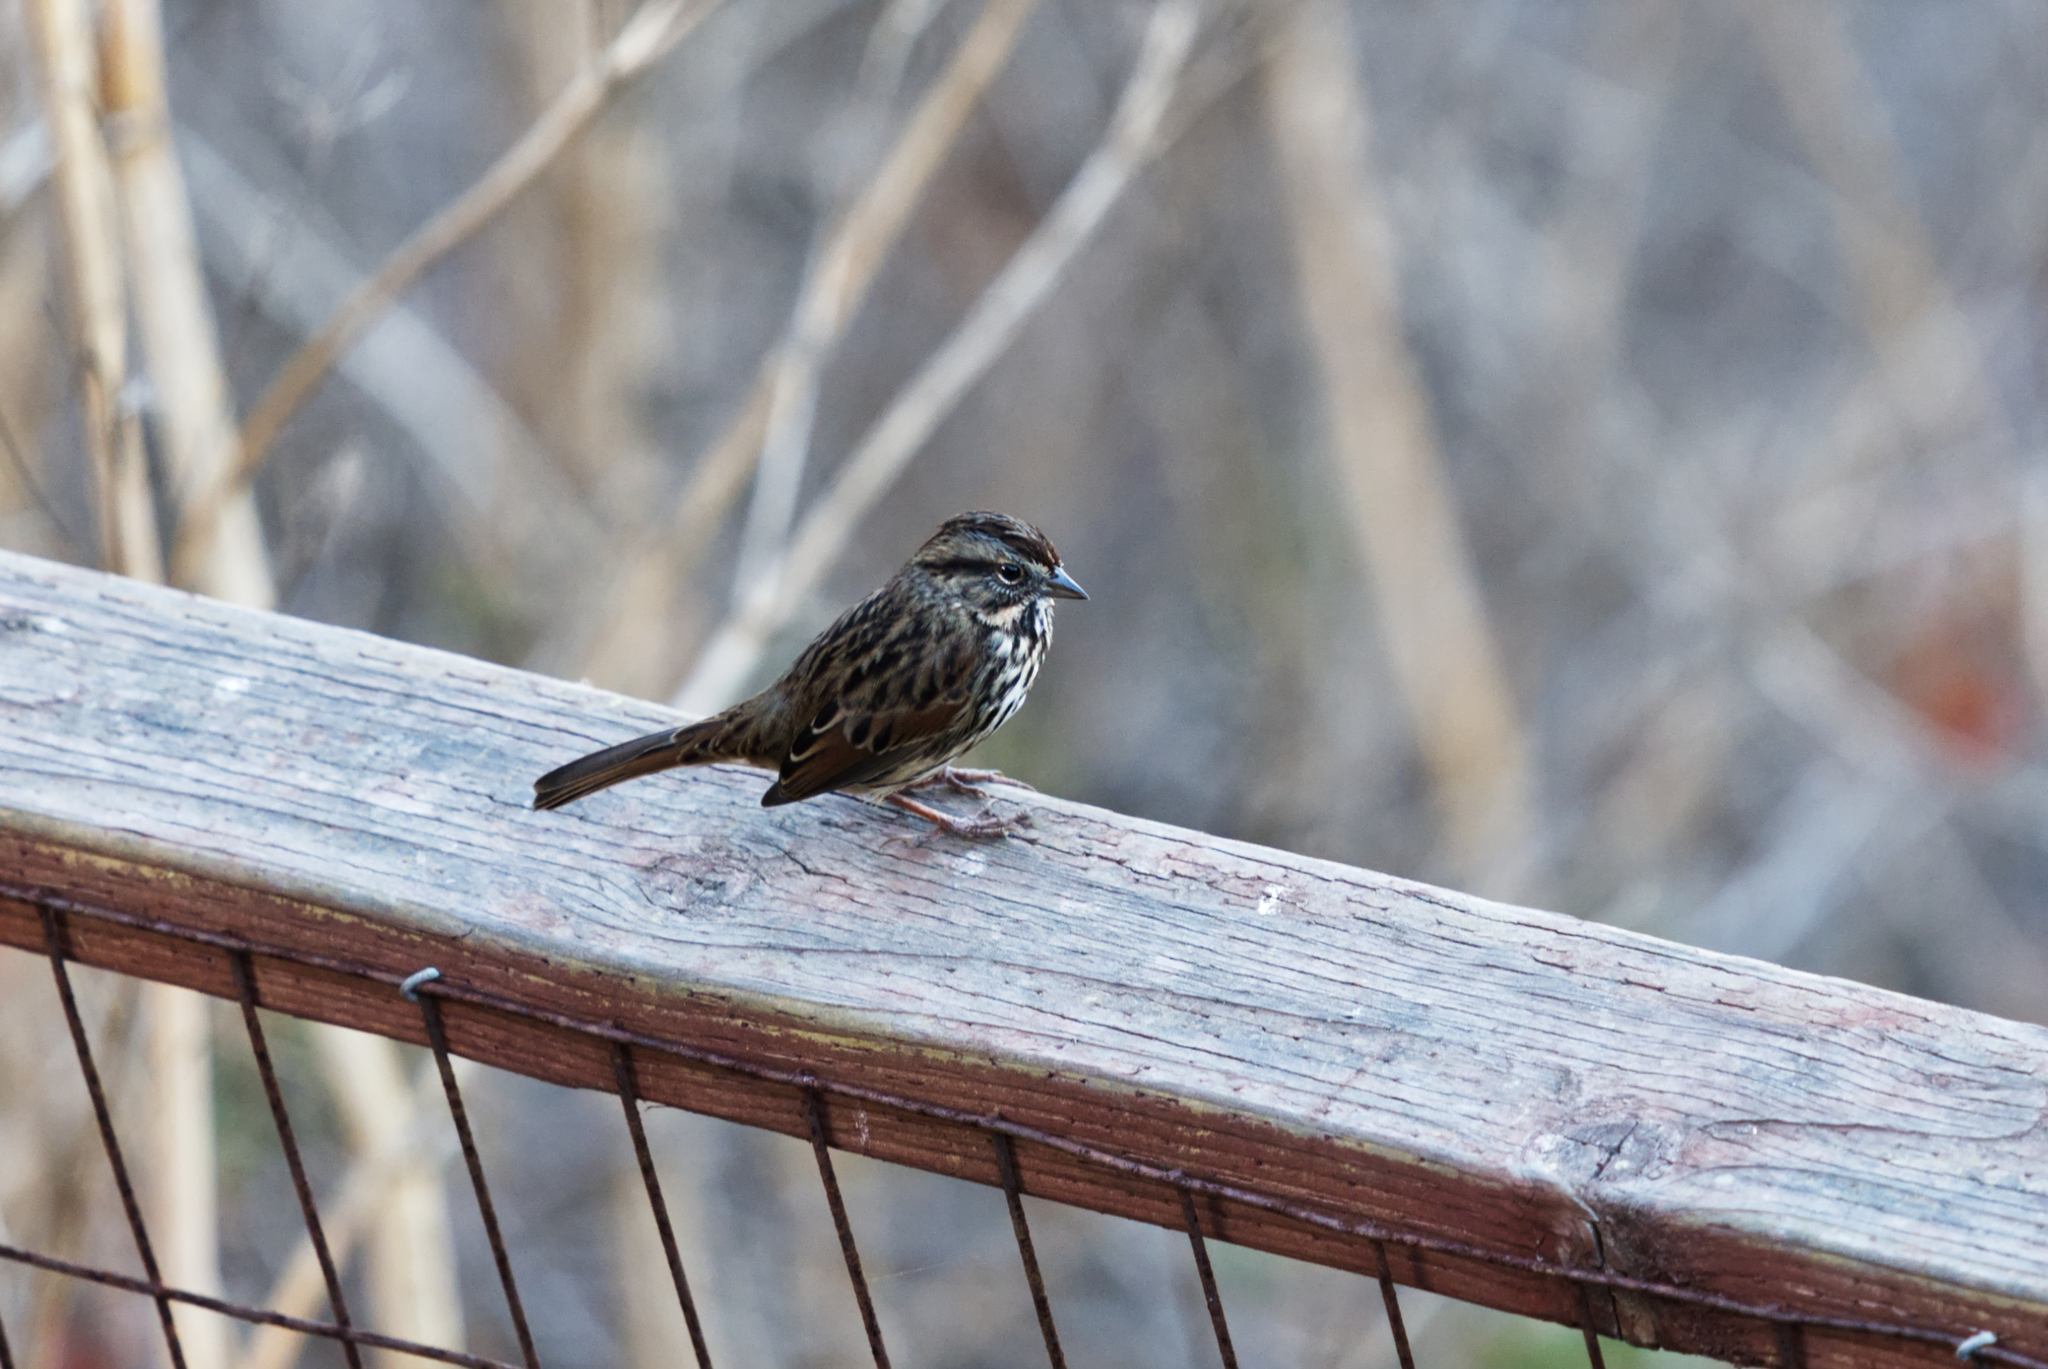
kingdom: Animalia
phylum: Chordata
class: Aves
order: Passeriformes
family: Passerellidae
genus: Melospiza
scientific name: Melospiza melodia
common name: Song sparrow
